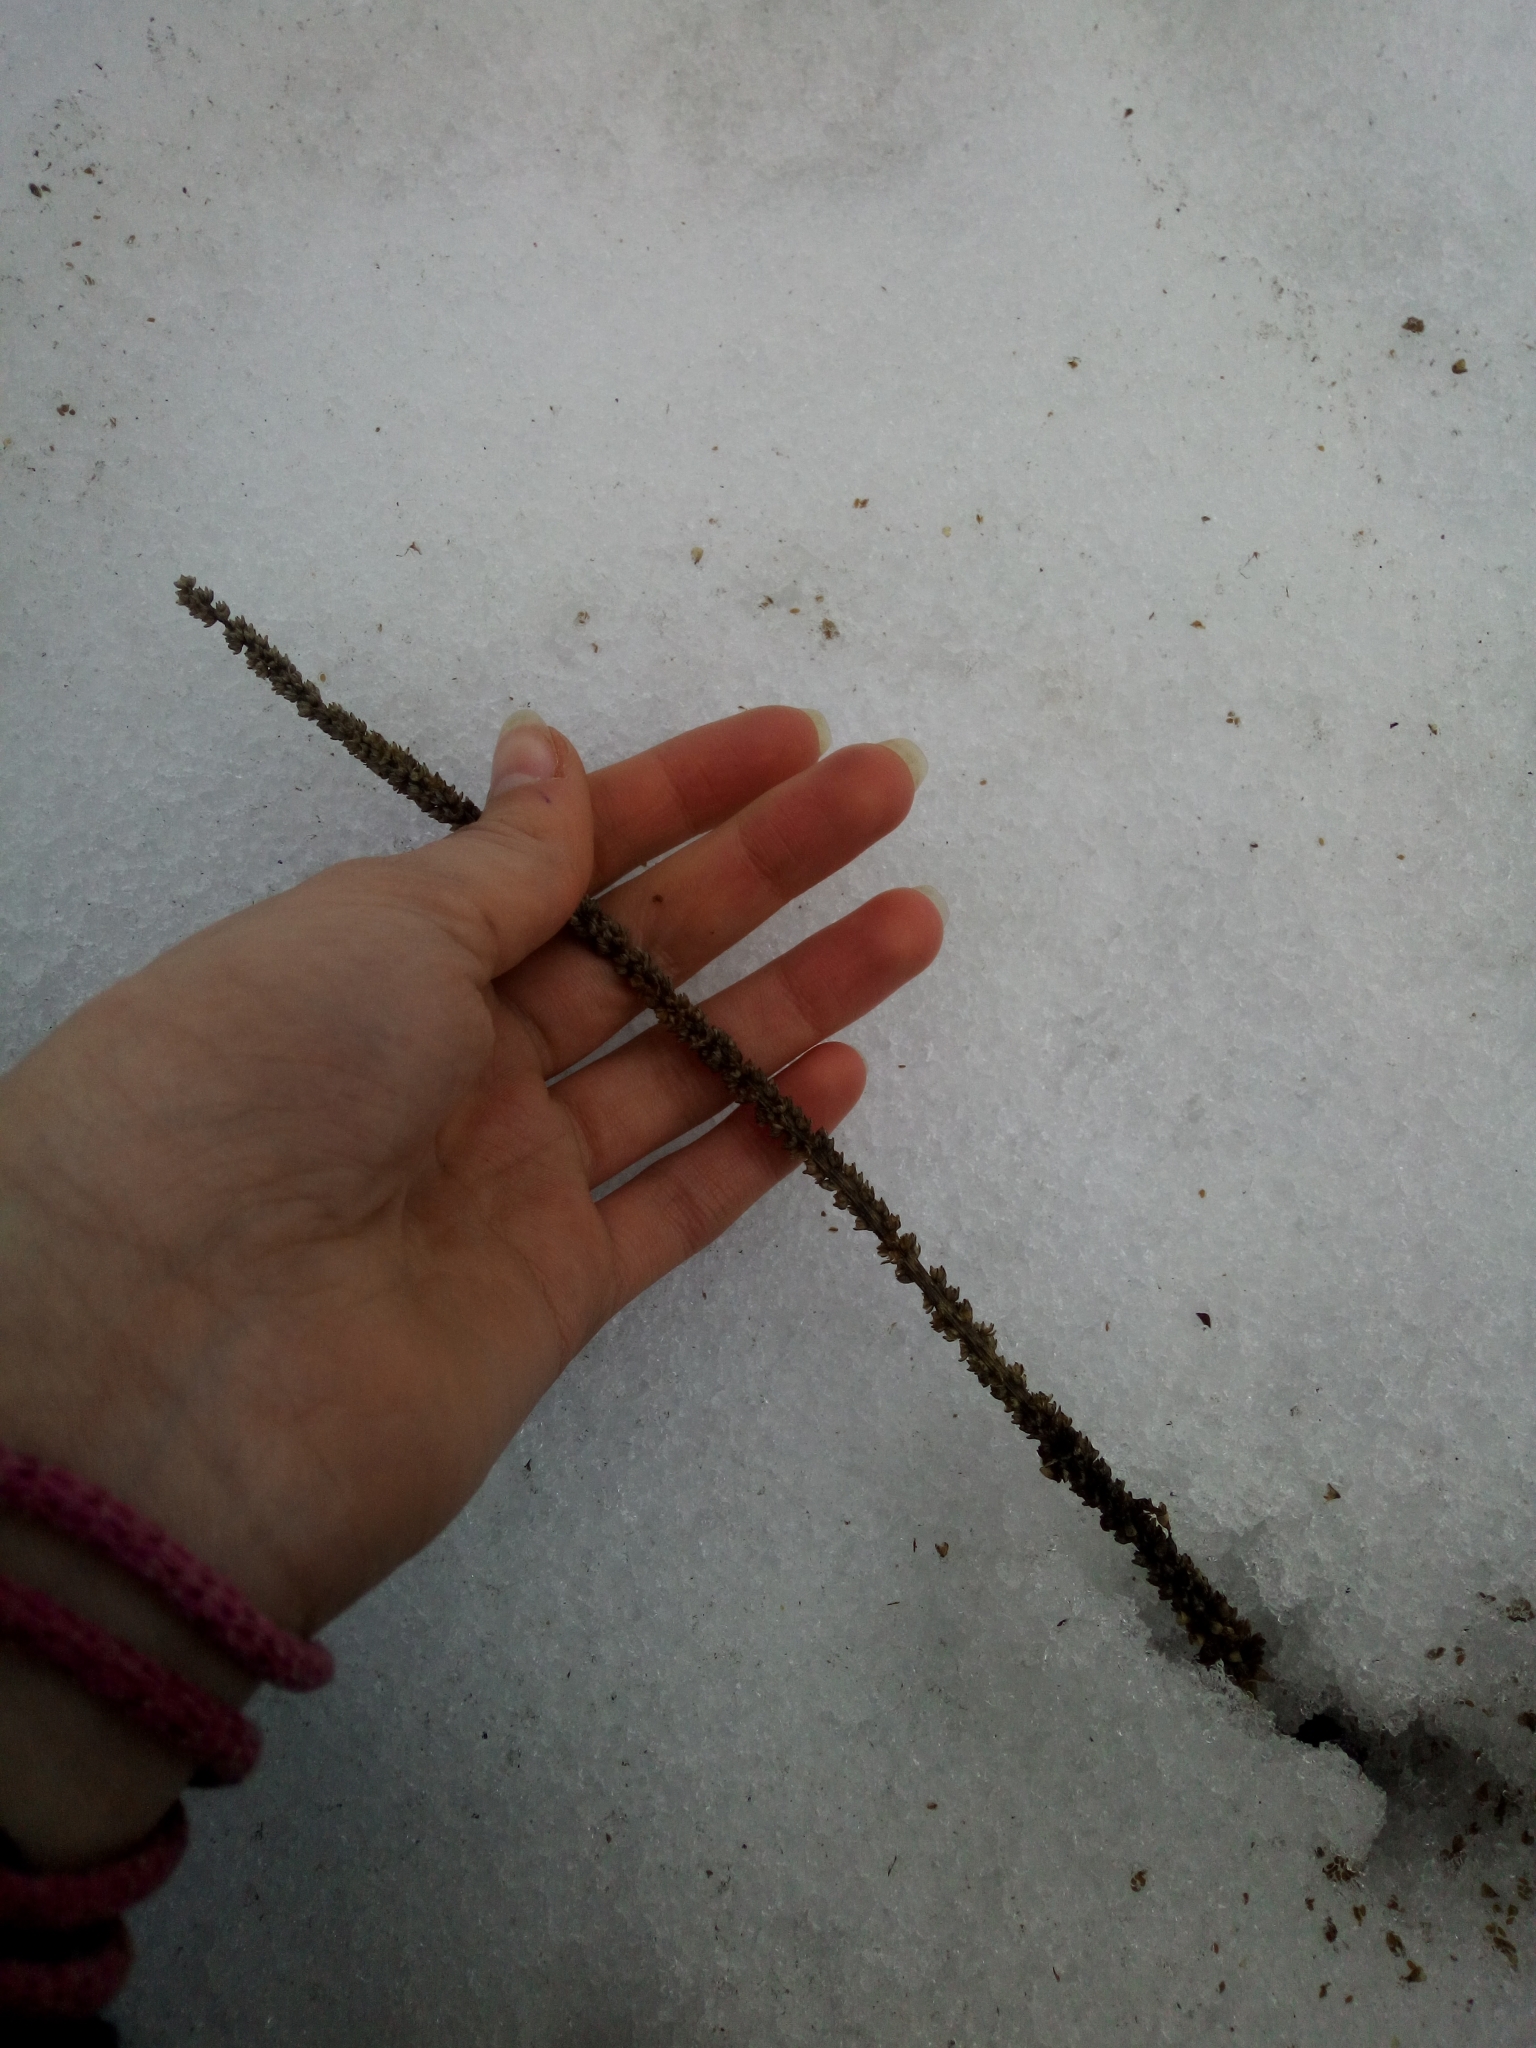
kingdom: Plantae
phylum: Tracheophyta
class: Magnoliopsida
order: Lamiales
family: Plantaginaceae
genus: Plantago
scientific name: Plantago major
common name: Common plantain
